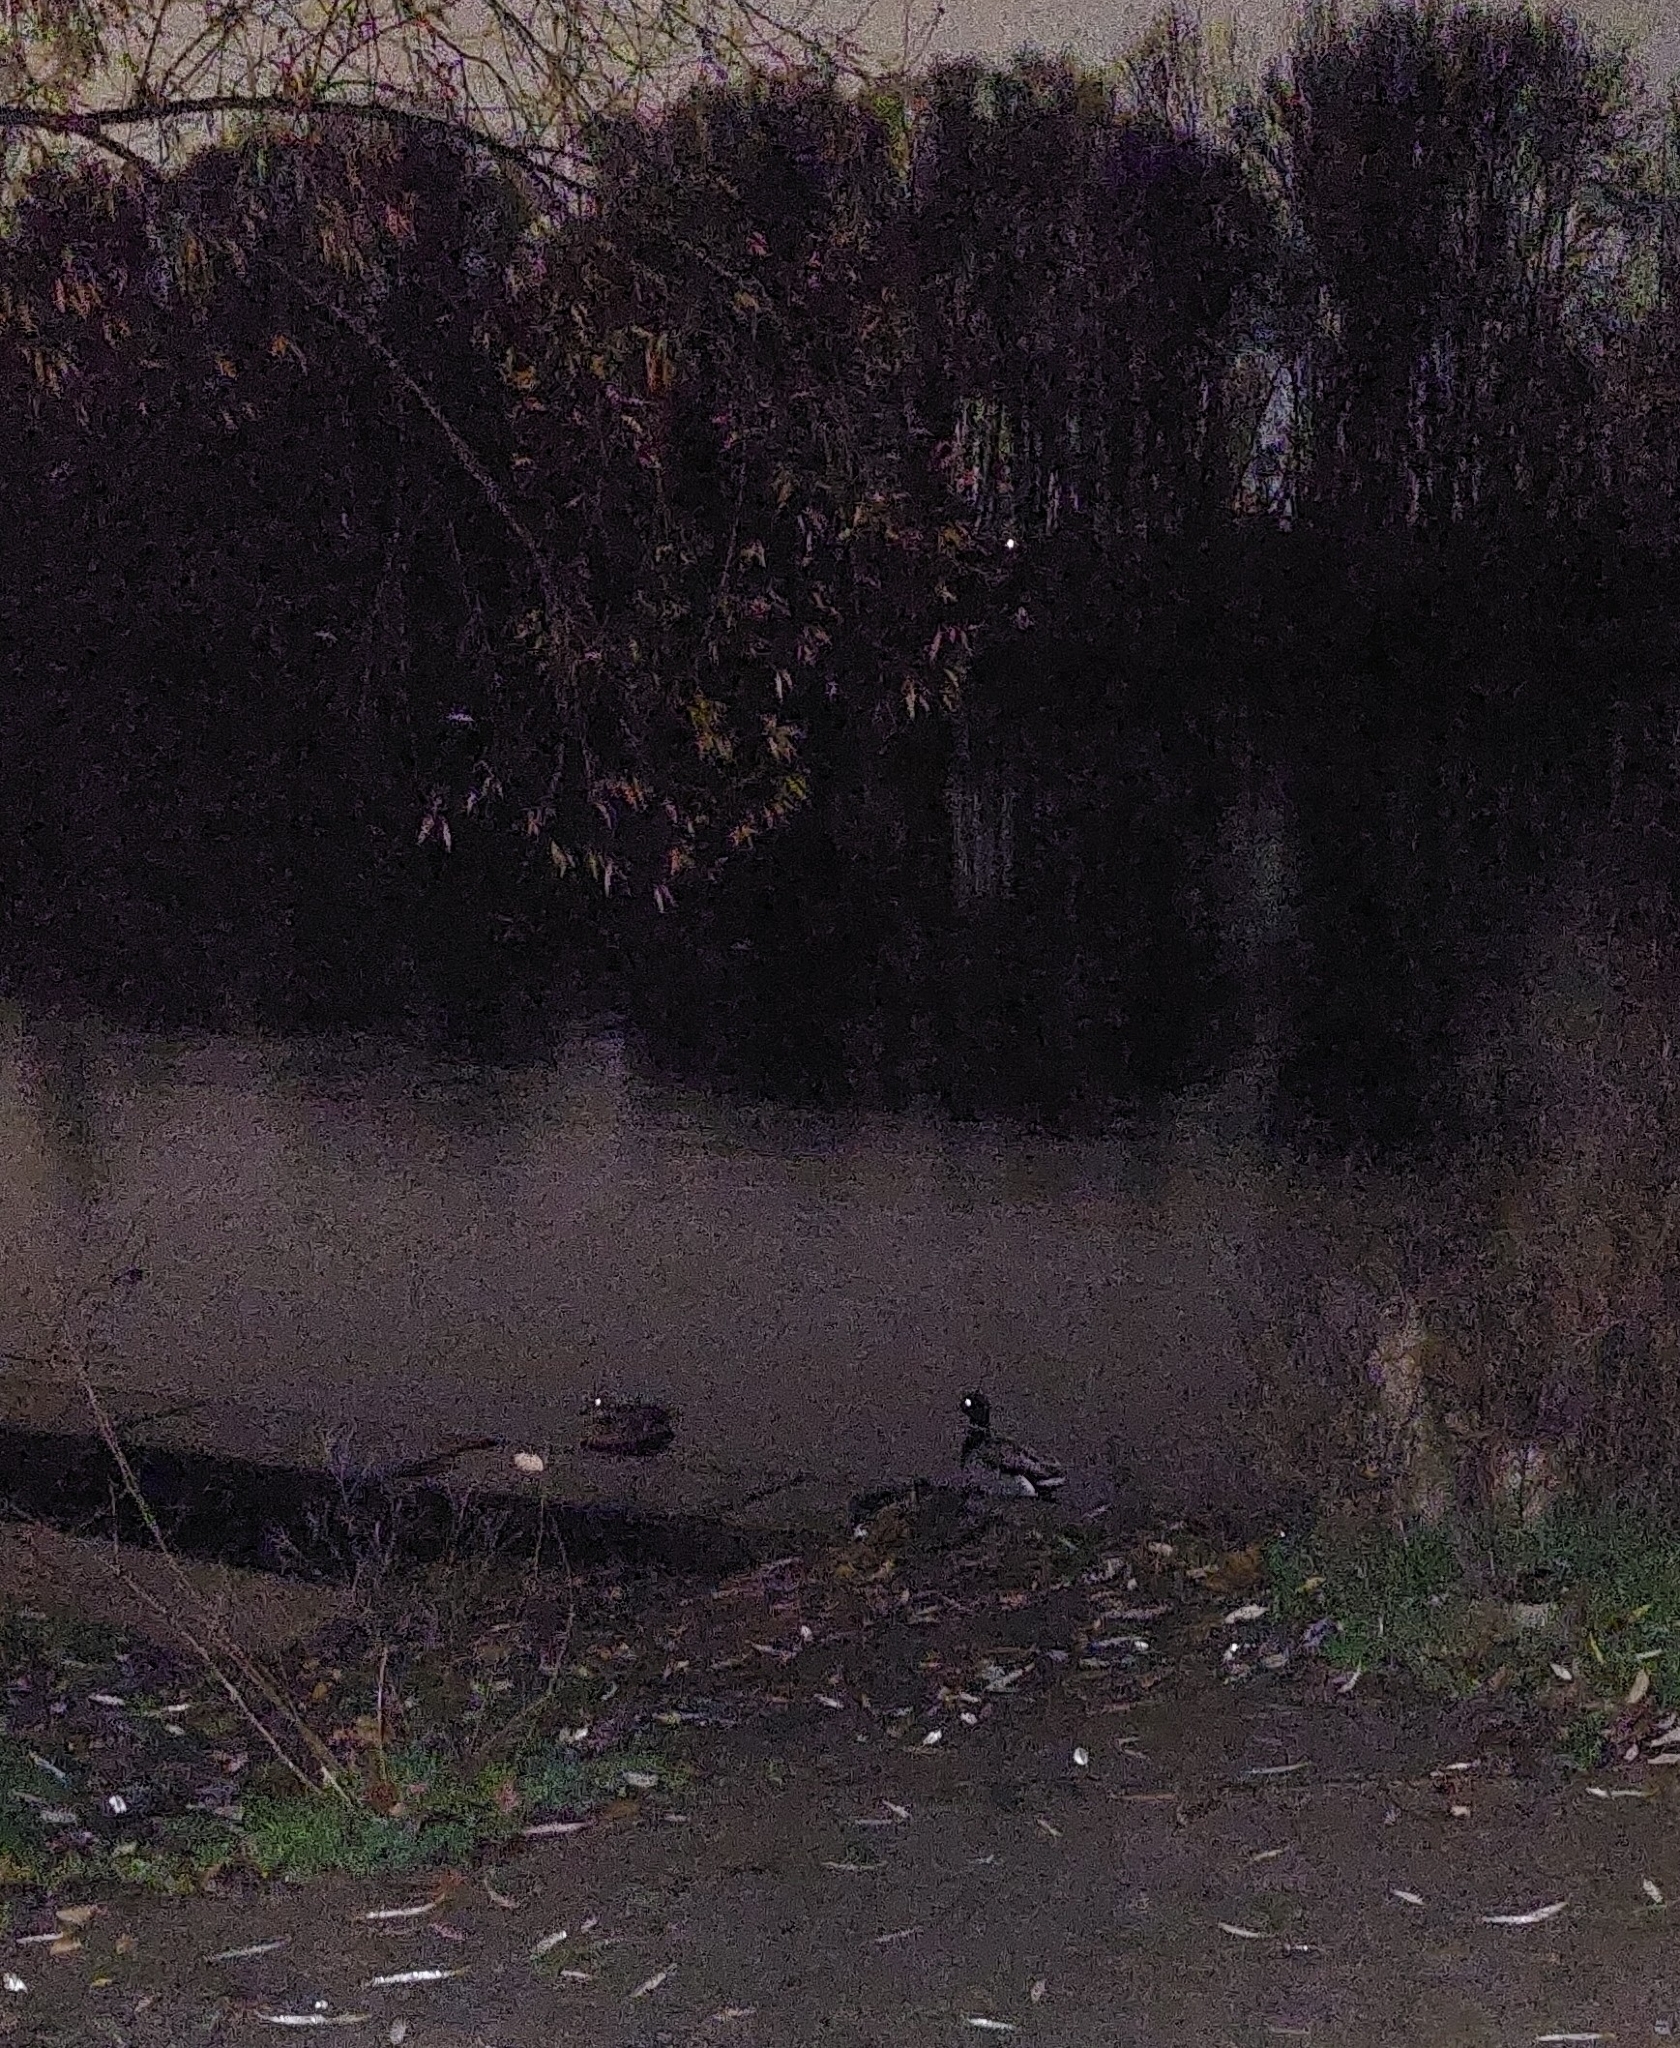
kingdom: Animalia
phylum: Chordata
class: Aves
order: Anseriformes
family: Anatidae
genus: Anas
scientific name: Anas platyrhynchos
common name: Mallard
